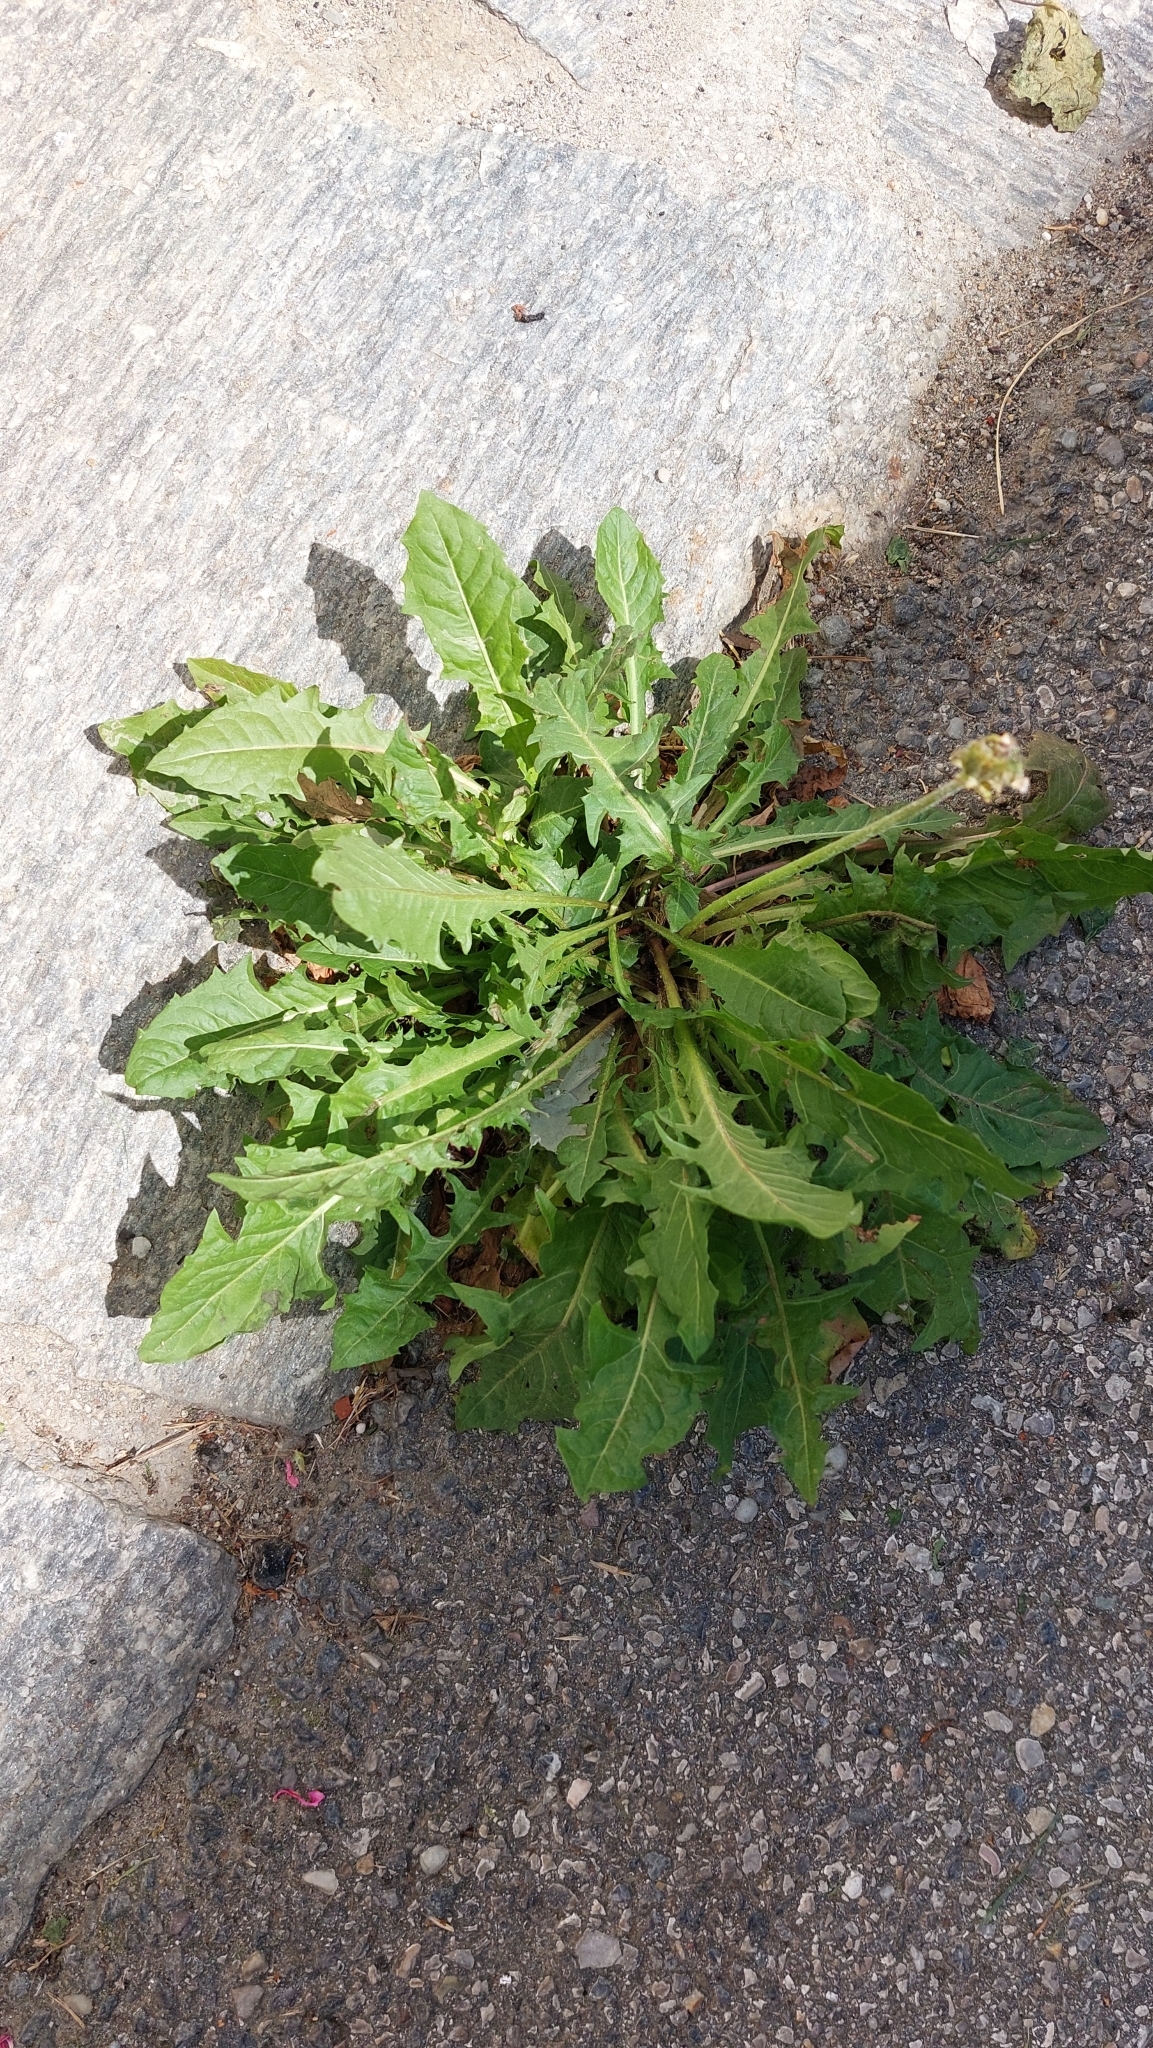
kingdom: Plantae
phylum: Tracheophyta
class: Magnoliopsida
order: Asterales
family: Asteraceae
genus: Taraxacum
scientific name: Taraxacum
